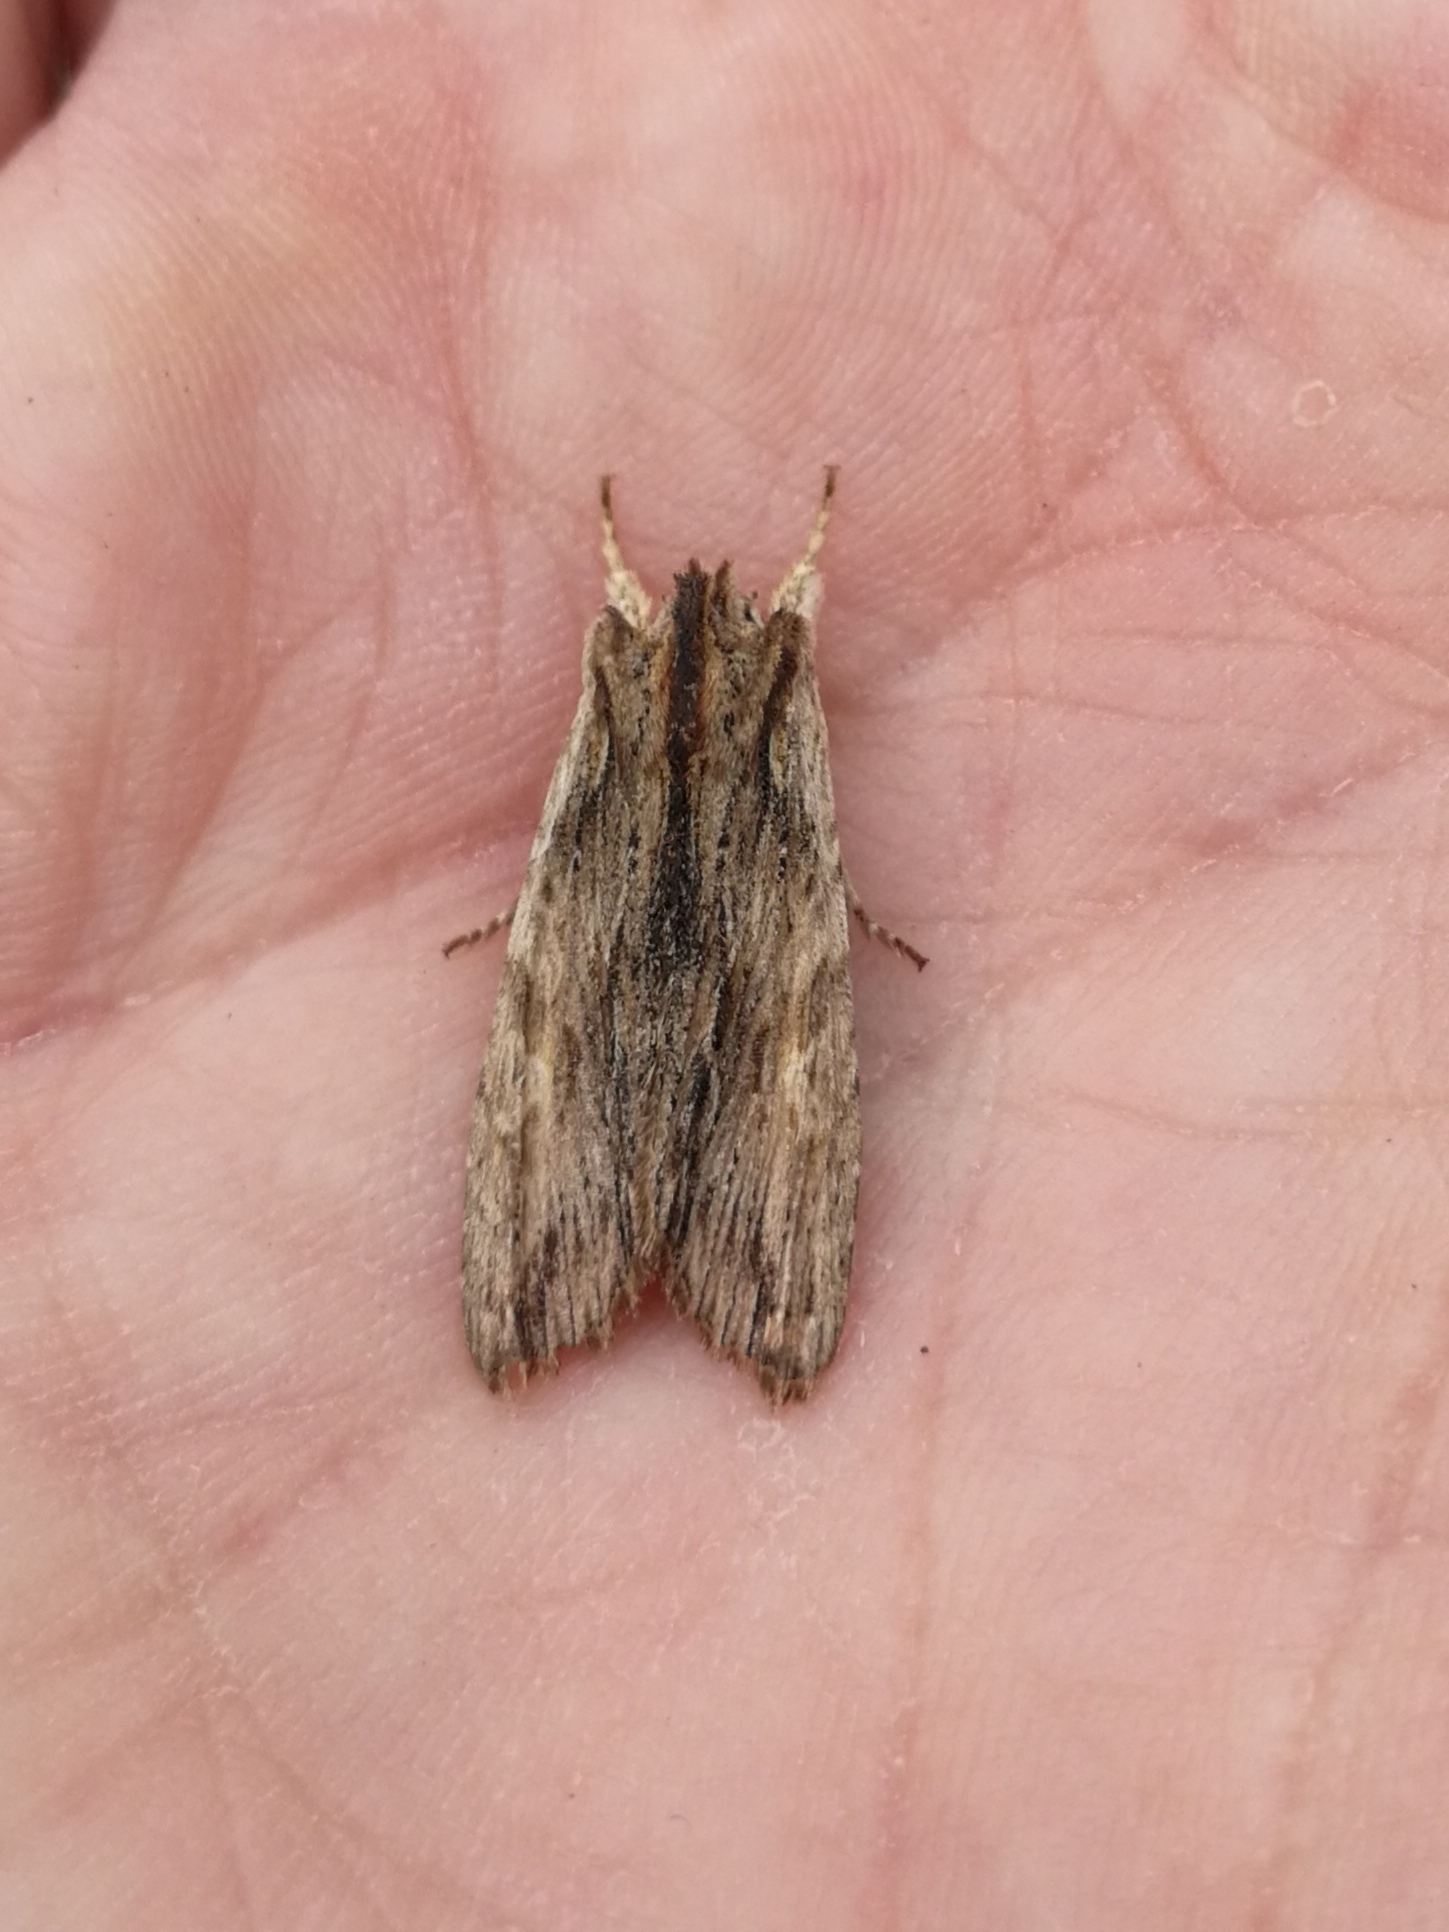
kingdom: Animalia
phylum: Arthropoda
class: Insecta
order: Lepidoptera
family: Noctuidae
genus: Lithophane
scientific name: Lithophane semibrunnea
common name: Tawny pinion
